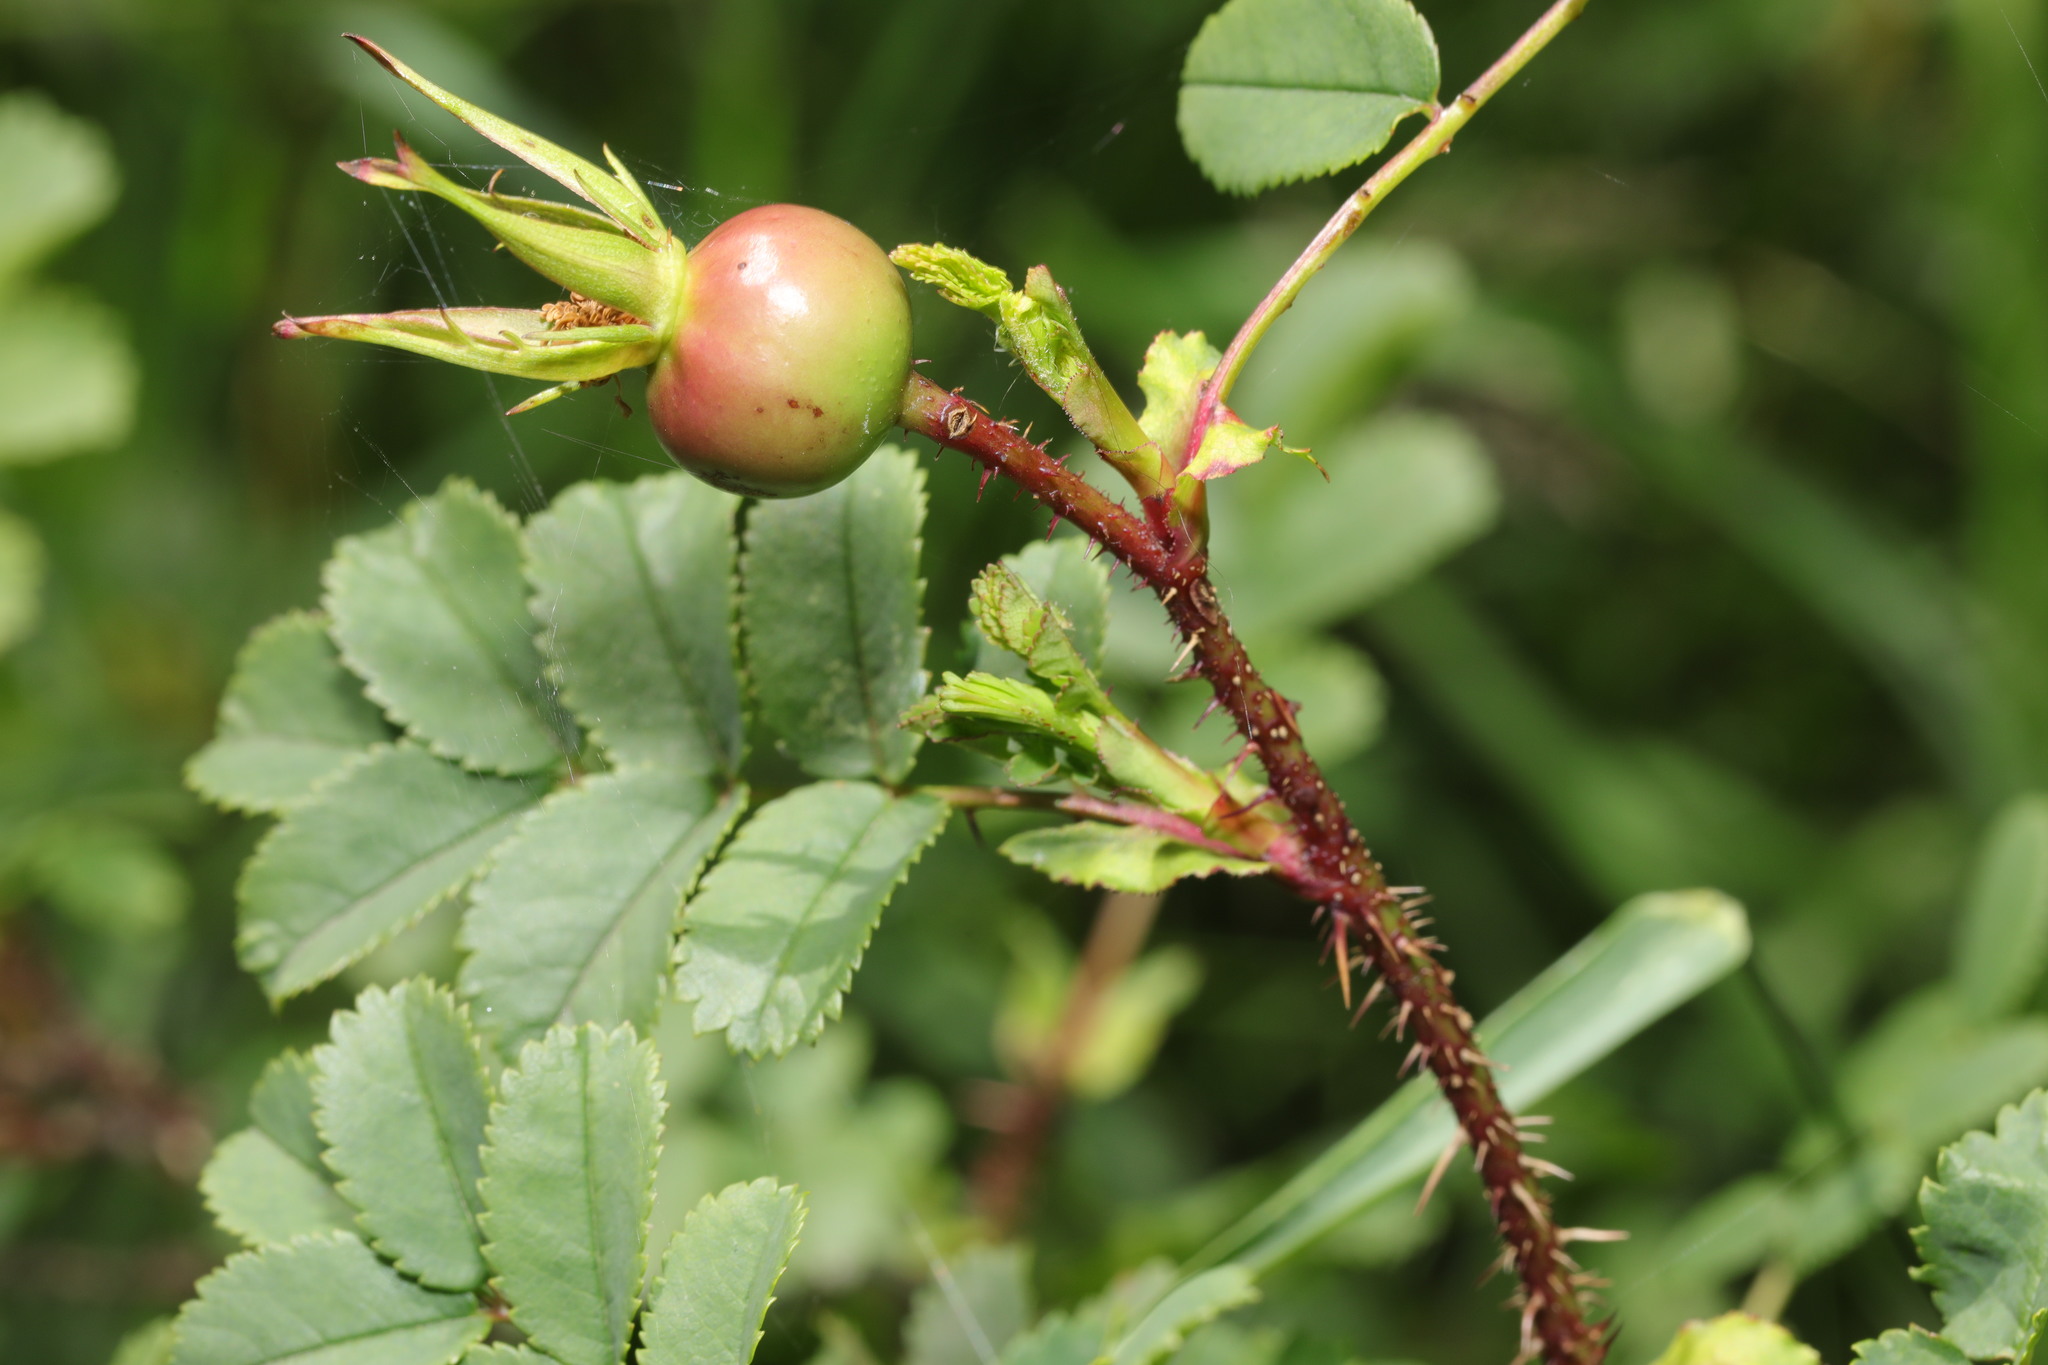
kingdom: Plantae
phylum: Tracheophyta
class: Magnoliopsida
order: Rosales
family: Rosaceae
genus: Rosa
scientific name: Rosa spinosissima
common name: Burnet rose
